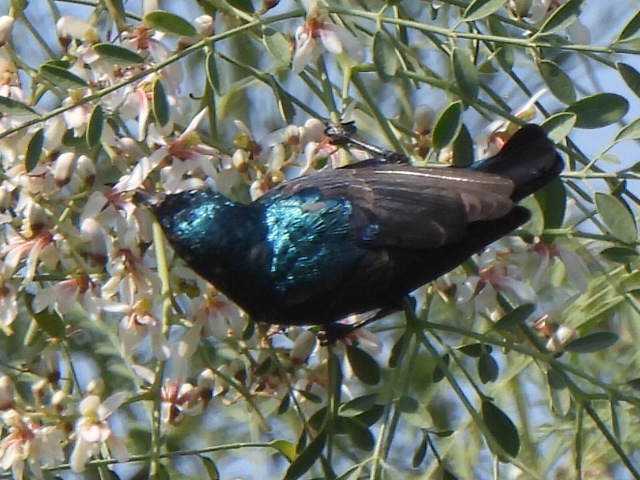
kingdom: Animalia
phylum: Chordata
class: Aves
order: Passeriformes
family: Nectariniidae
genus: Cinnyris
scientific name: Cinnyris asiaticus
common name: Purple sunbird
